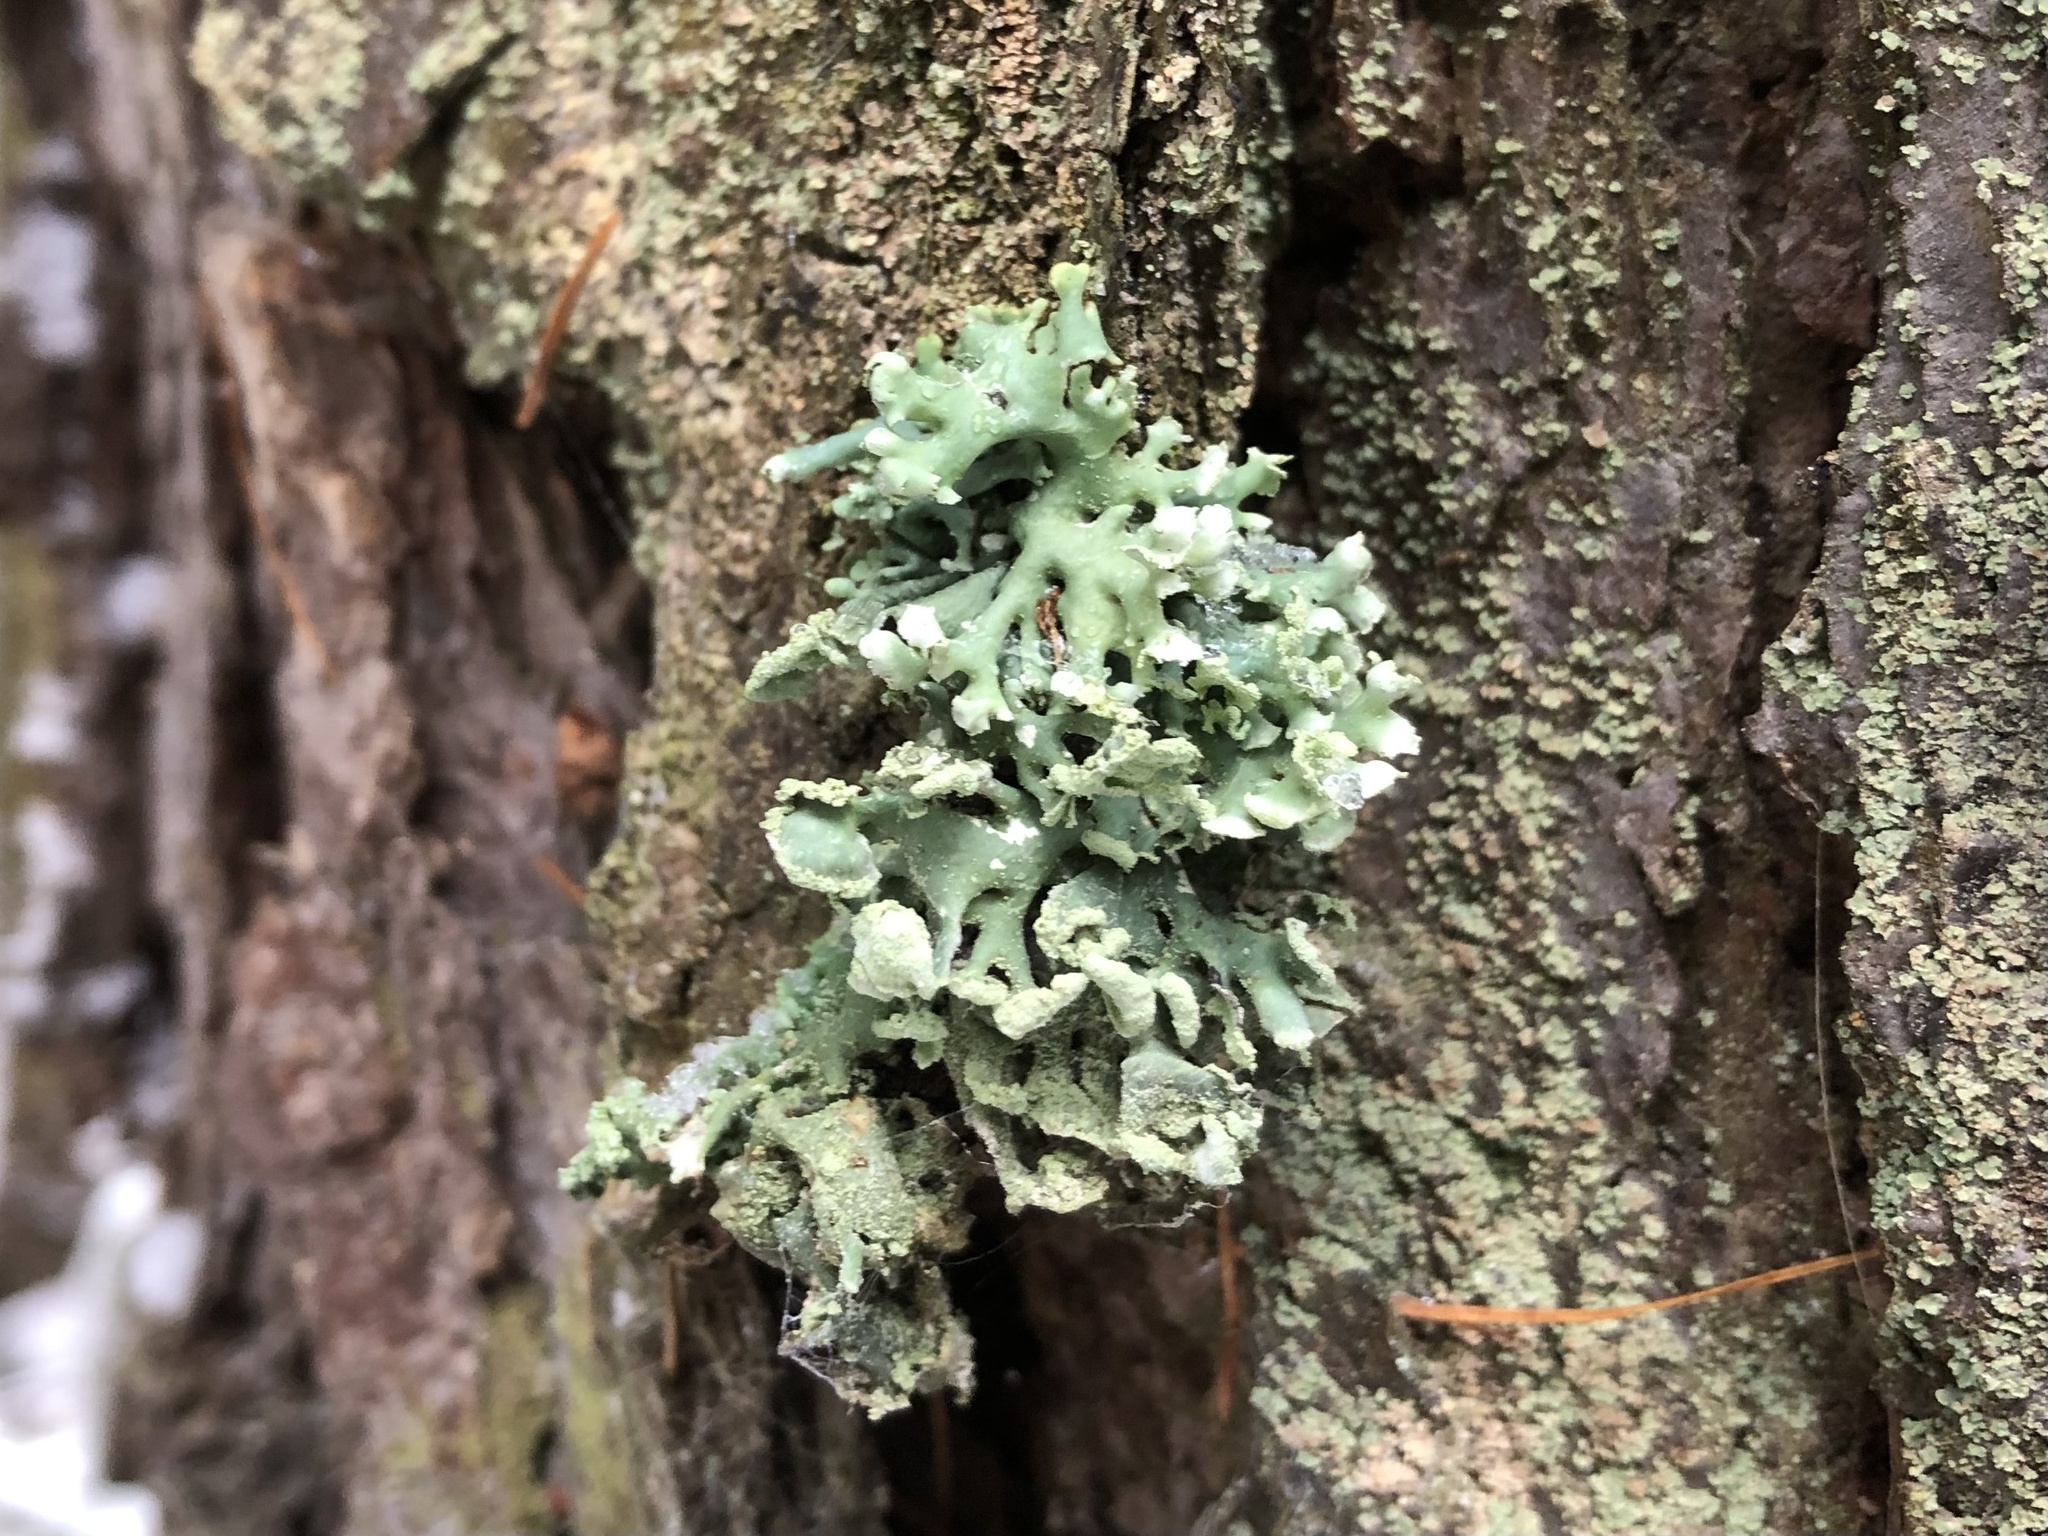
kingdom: Fungi
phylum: Ascomycota
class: Lecanoromycetes
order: Lecanorales
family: Parmeliaceae
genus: Hypogymnia
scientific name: Hypogymnia physodes
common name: Dark crottle
